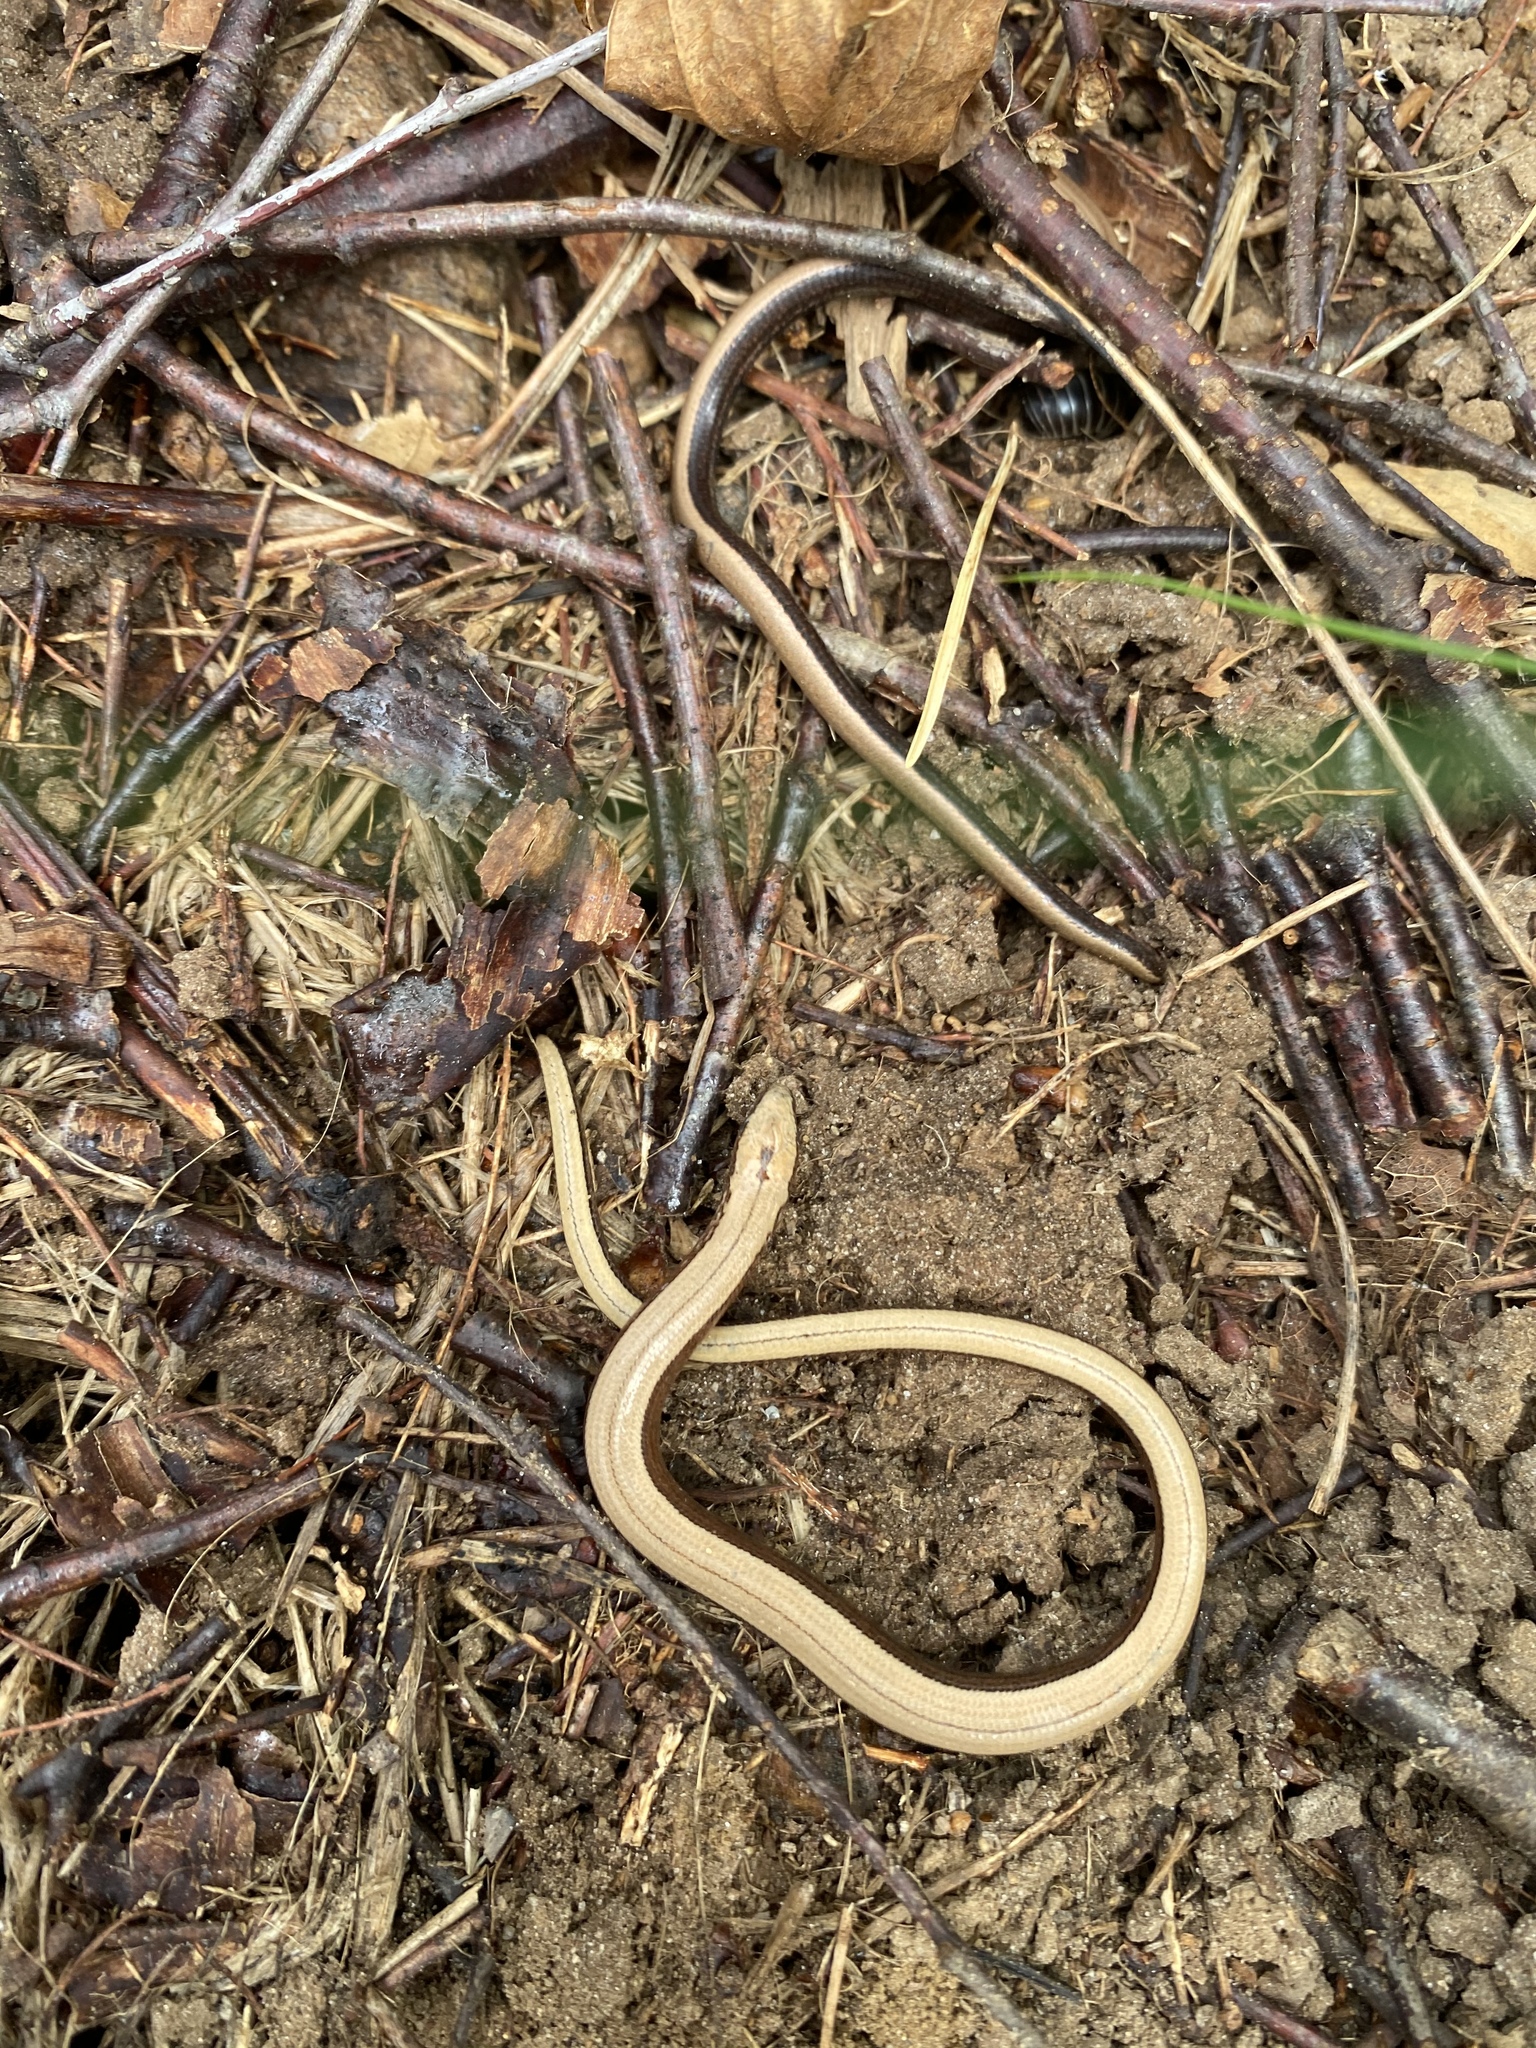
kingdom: Animalia
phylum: Chordata
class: Squamata
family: Anguidae
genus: Anguis
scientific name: Anguis fragilis
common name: Slow worm
